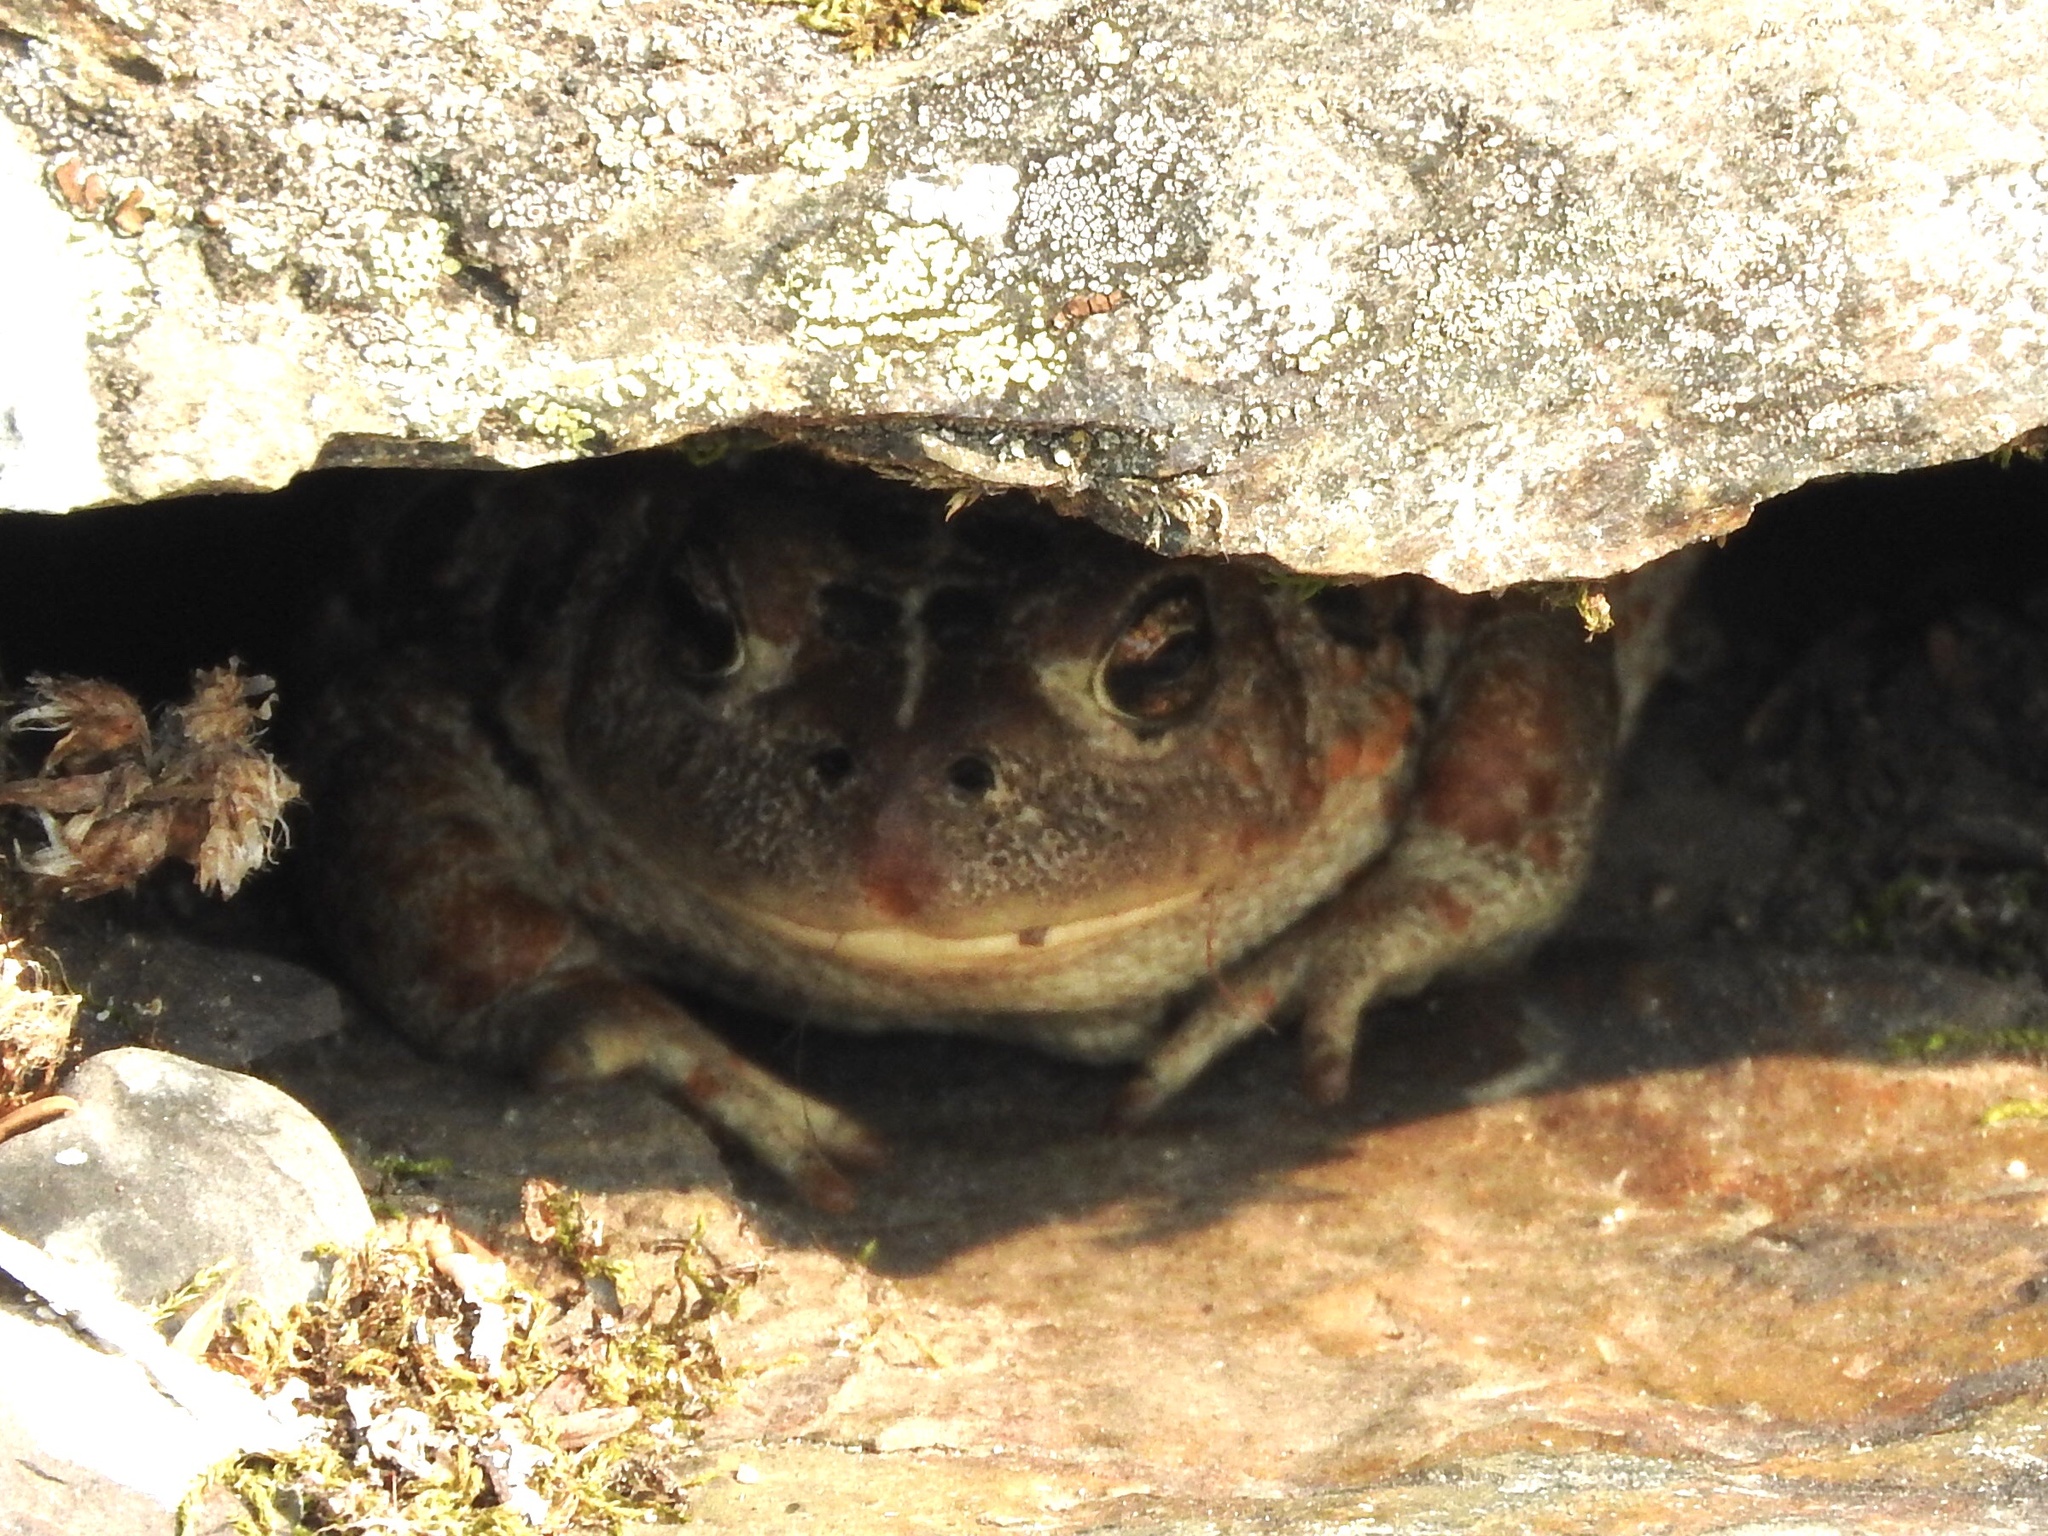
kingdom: Animalia
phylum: Chordata
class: Amphibia
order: Anura
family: Bufonidae
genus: Anaxyrus
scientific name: Anaxyrus boreas
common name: Western toad
